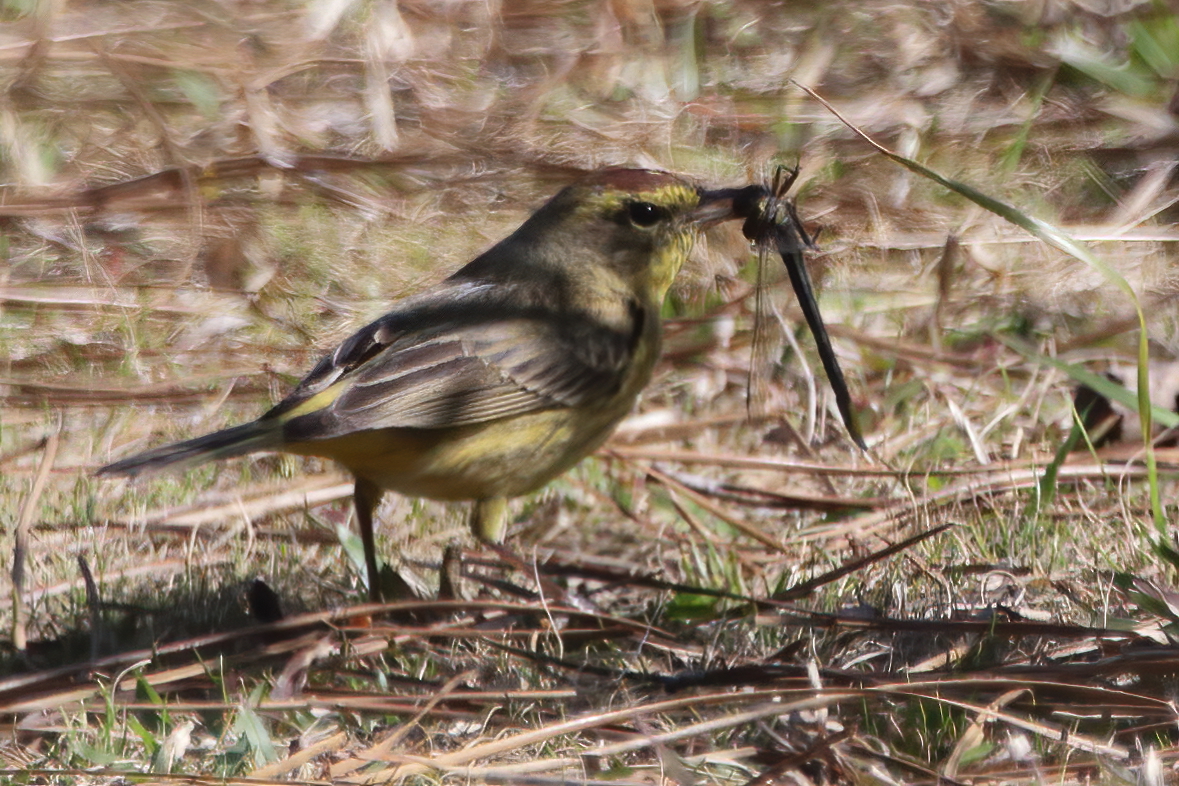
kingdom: Animalia
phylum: Chordata
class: Aves
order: Passeriformes
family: Parulidae
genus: Setophaga
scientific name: Setophaga palmarum
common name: Palm warbler
